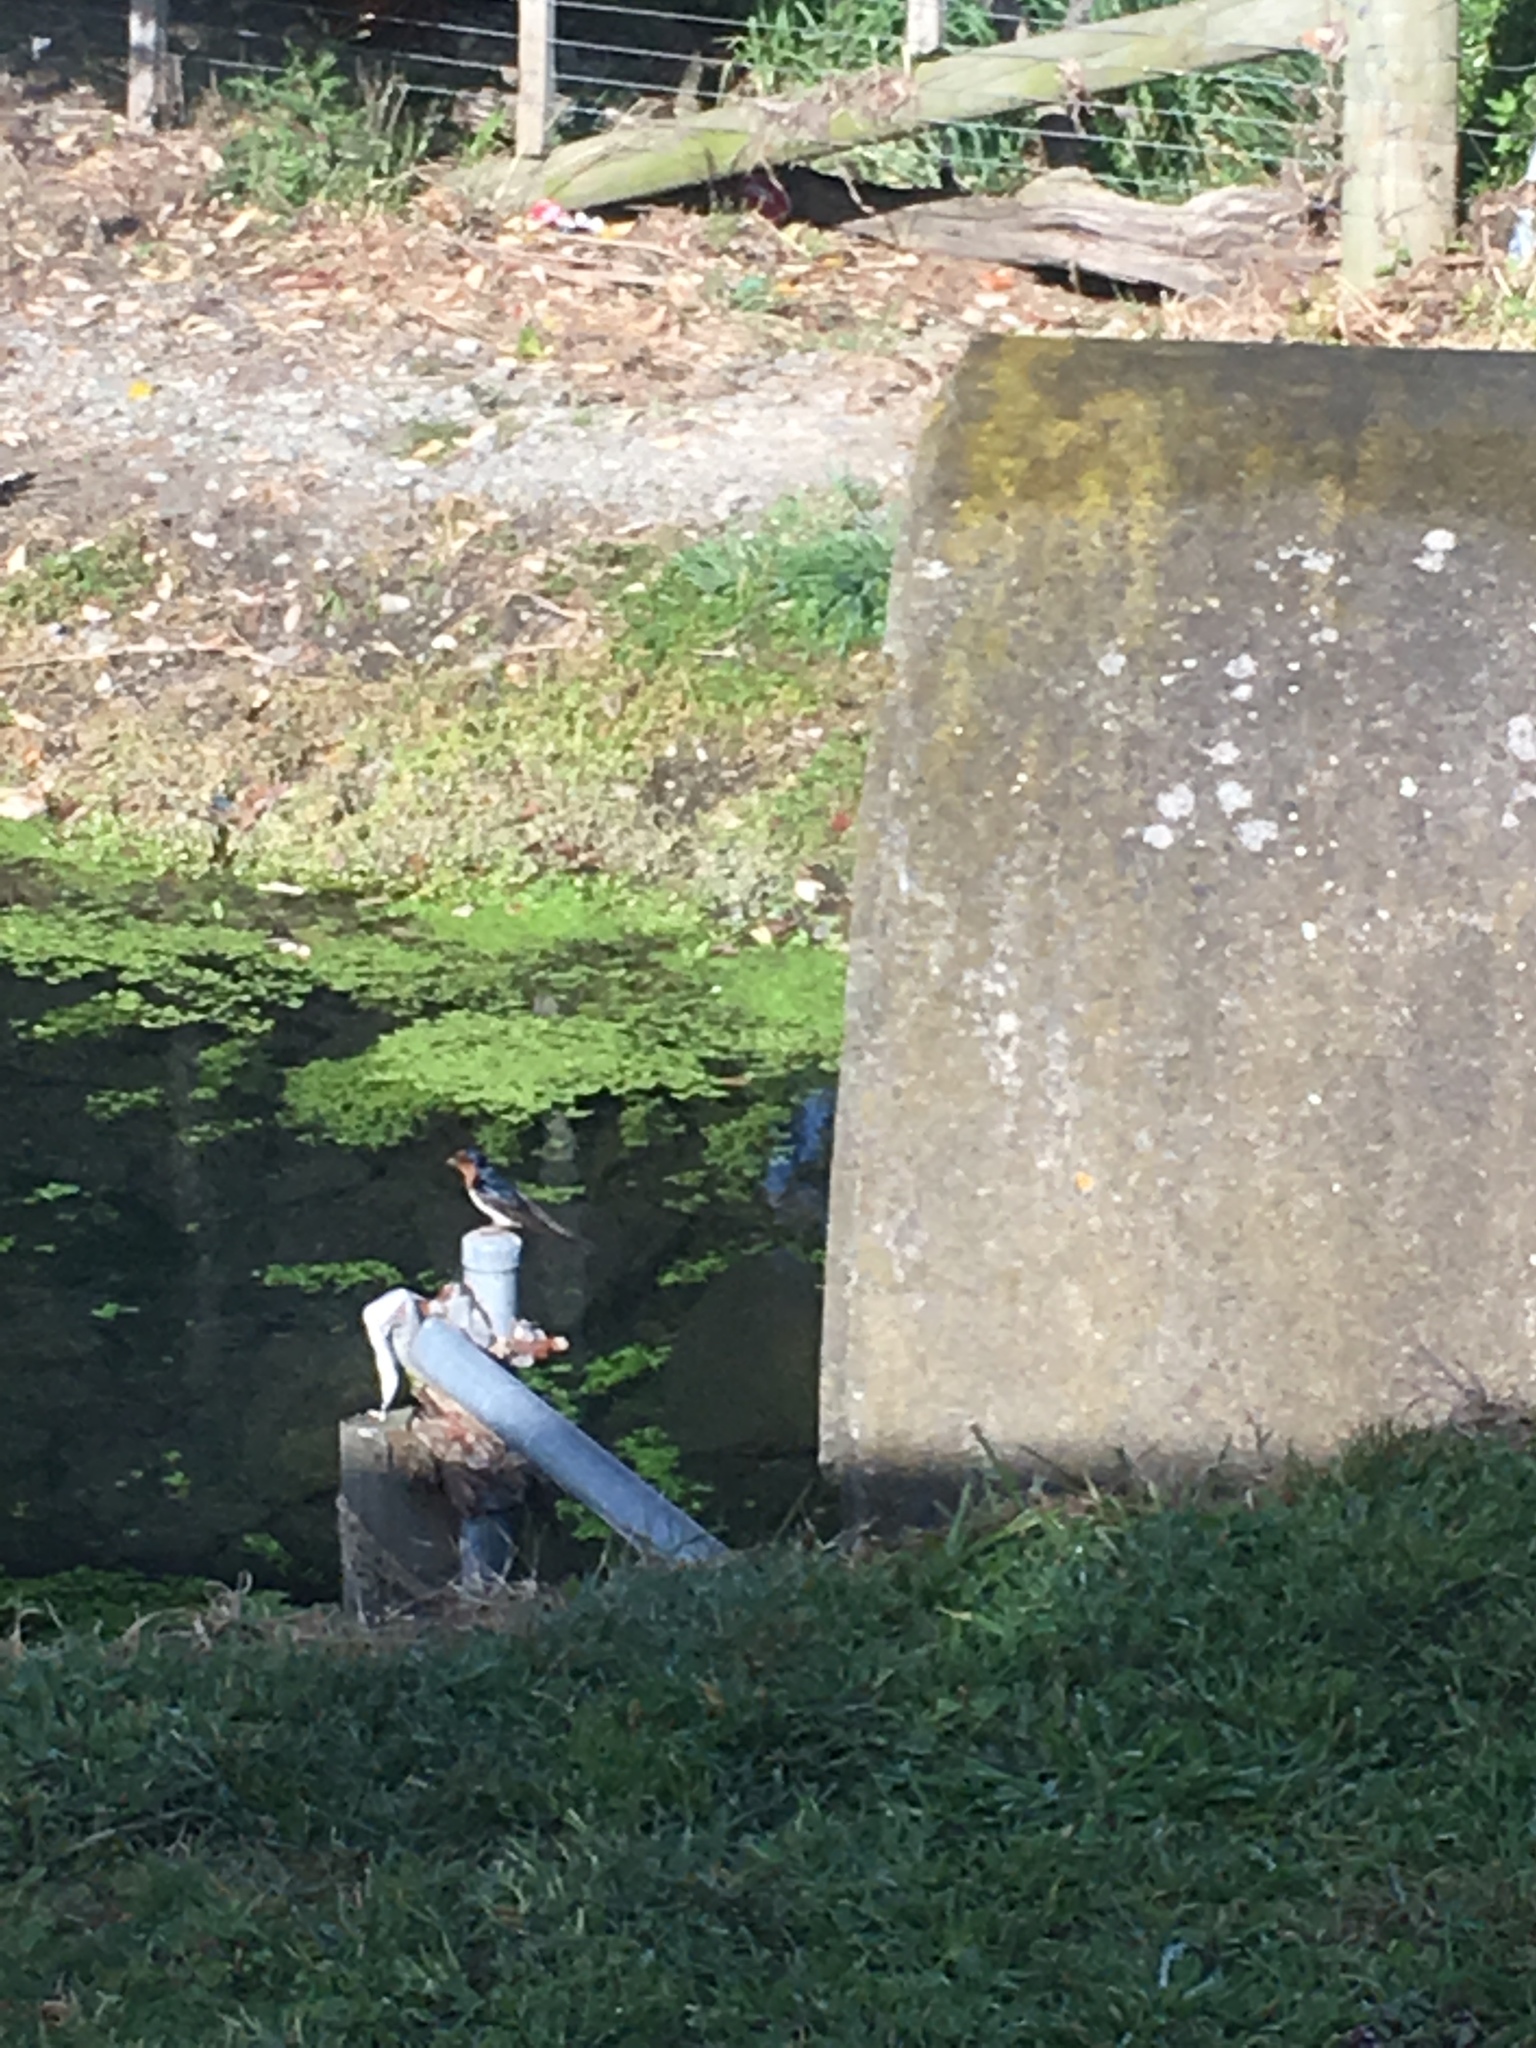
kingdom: Animalia
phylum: Chordata
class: Aves
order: Passeriformes
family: Hirundinidae
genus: Hirundo
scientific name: Hirundo neoxena
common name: Welcome swallow
